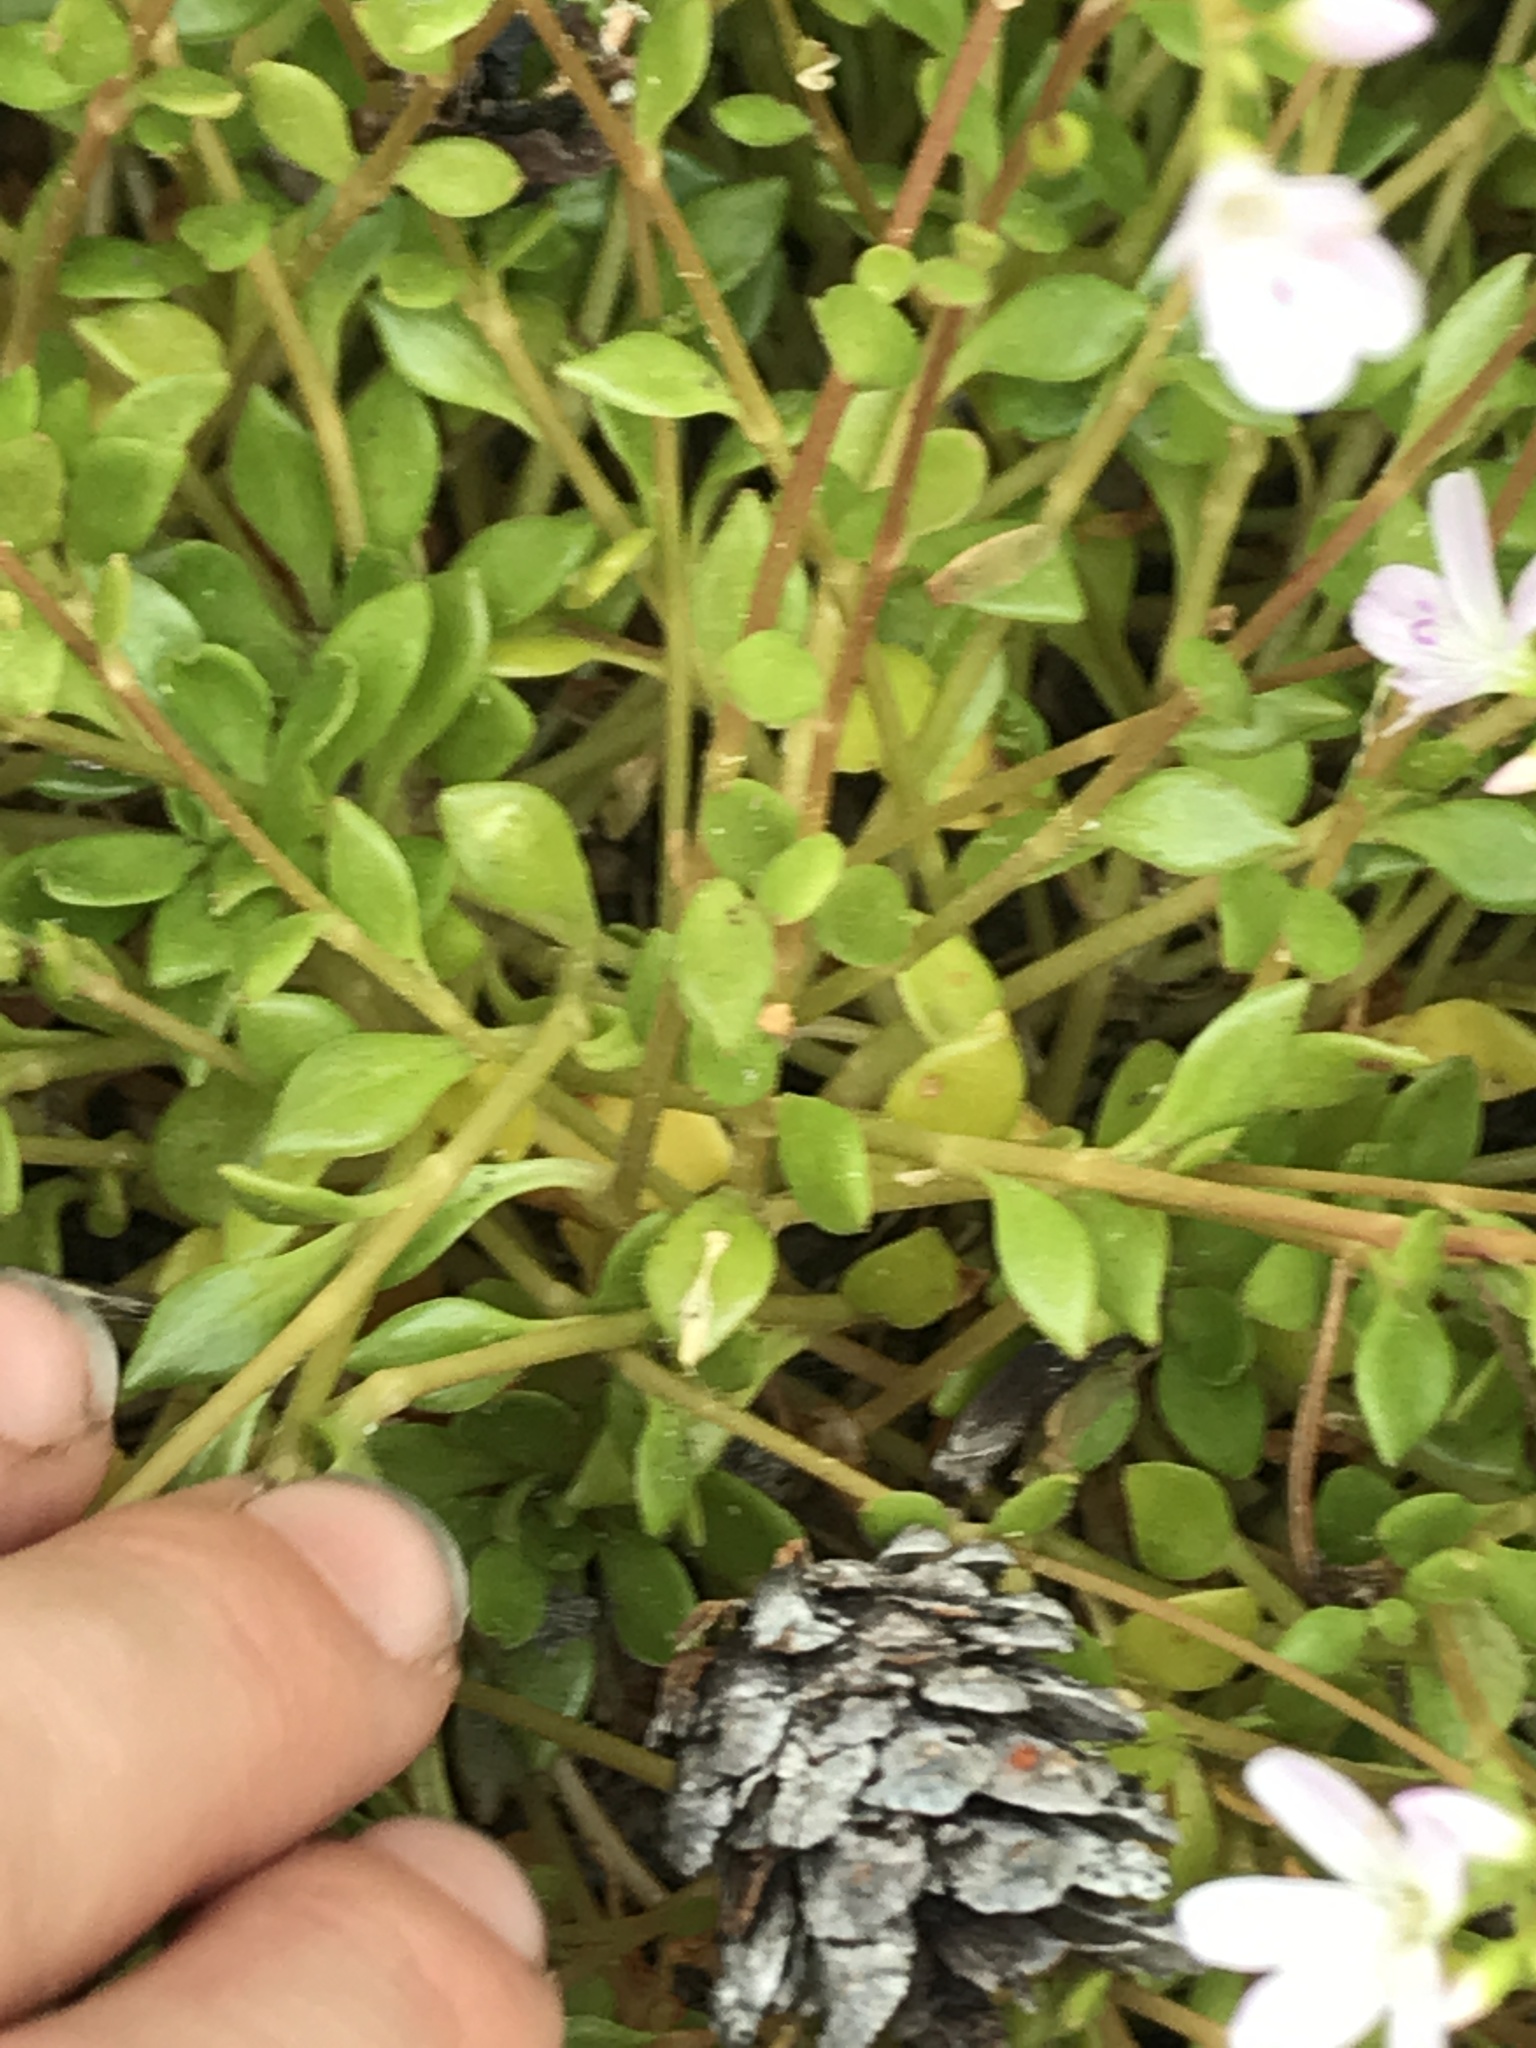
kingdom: Plantae
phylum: Tracheophyta
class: Magnoliopsida
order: Caryophyllales
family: Montiaceae
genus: Montia
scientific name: Montia parvifolia
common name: Small-leaved blinks
